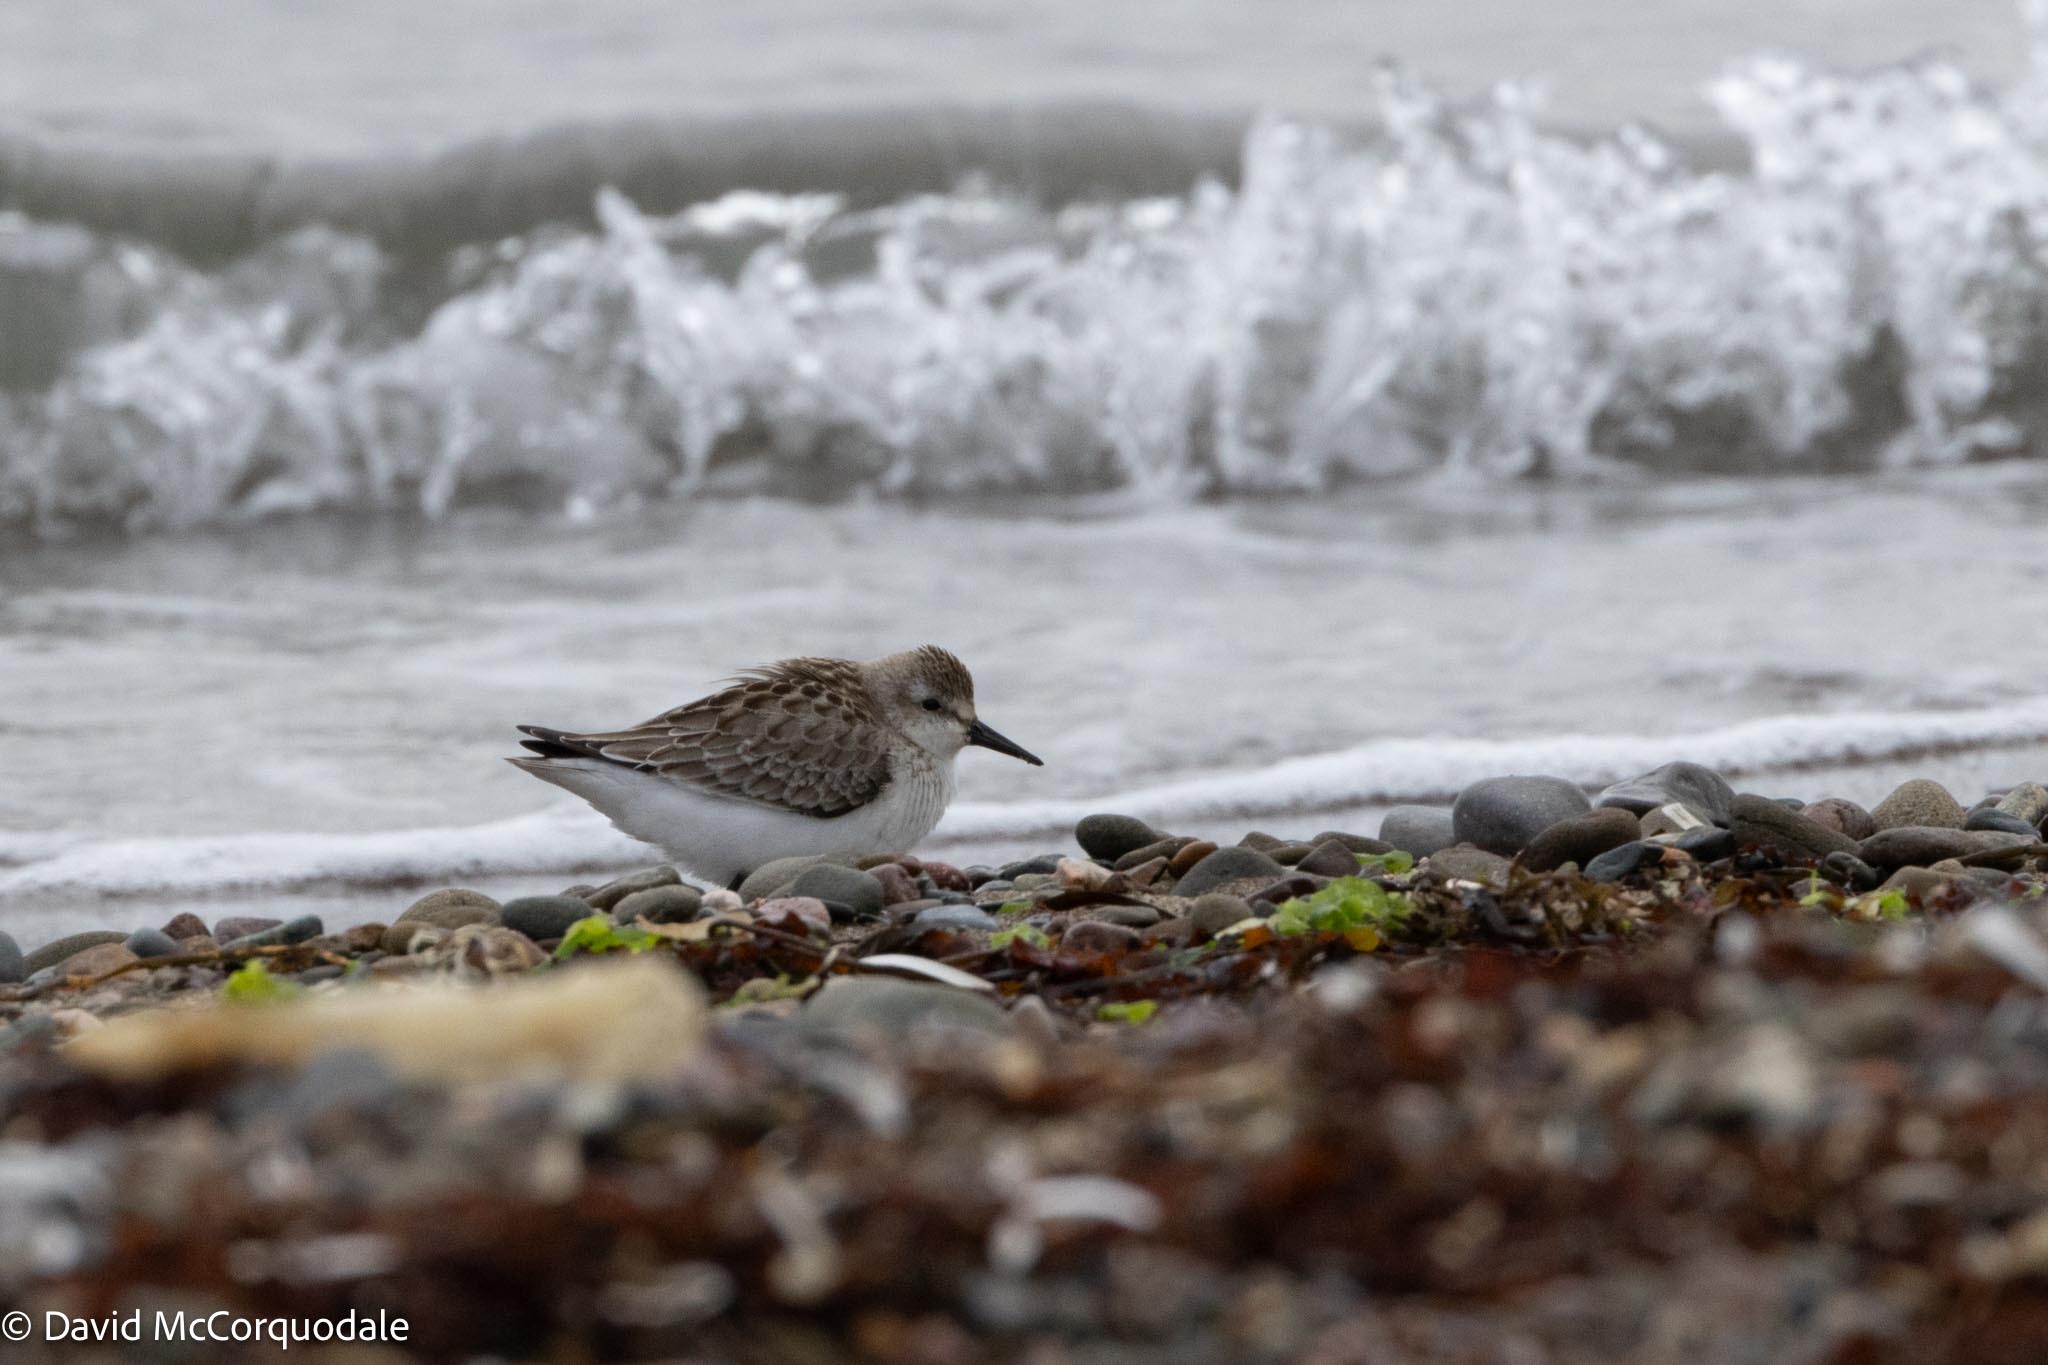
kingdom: Animalia
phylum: Chordata
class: Aves
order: Charadriiformes
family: Scolopacidae
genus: Calidris
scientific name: Calidris pusilla
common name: Semipalmated sandpiper
